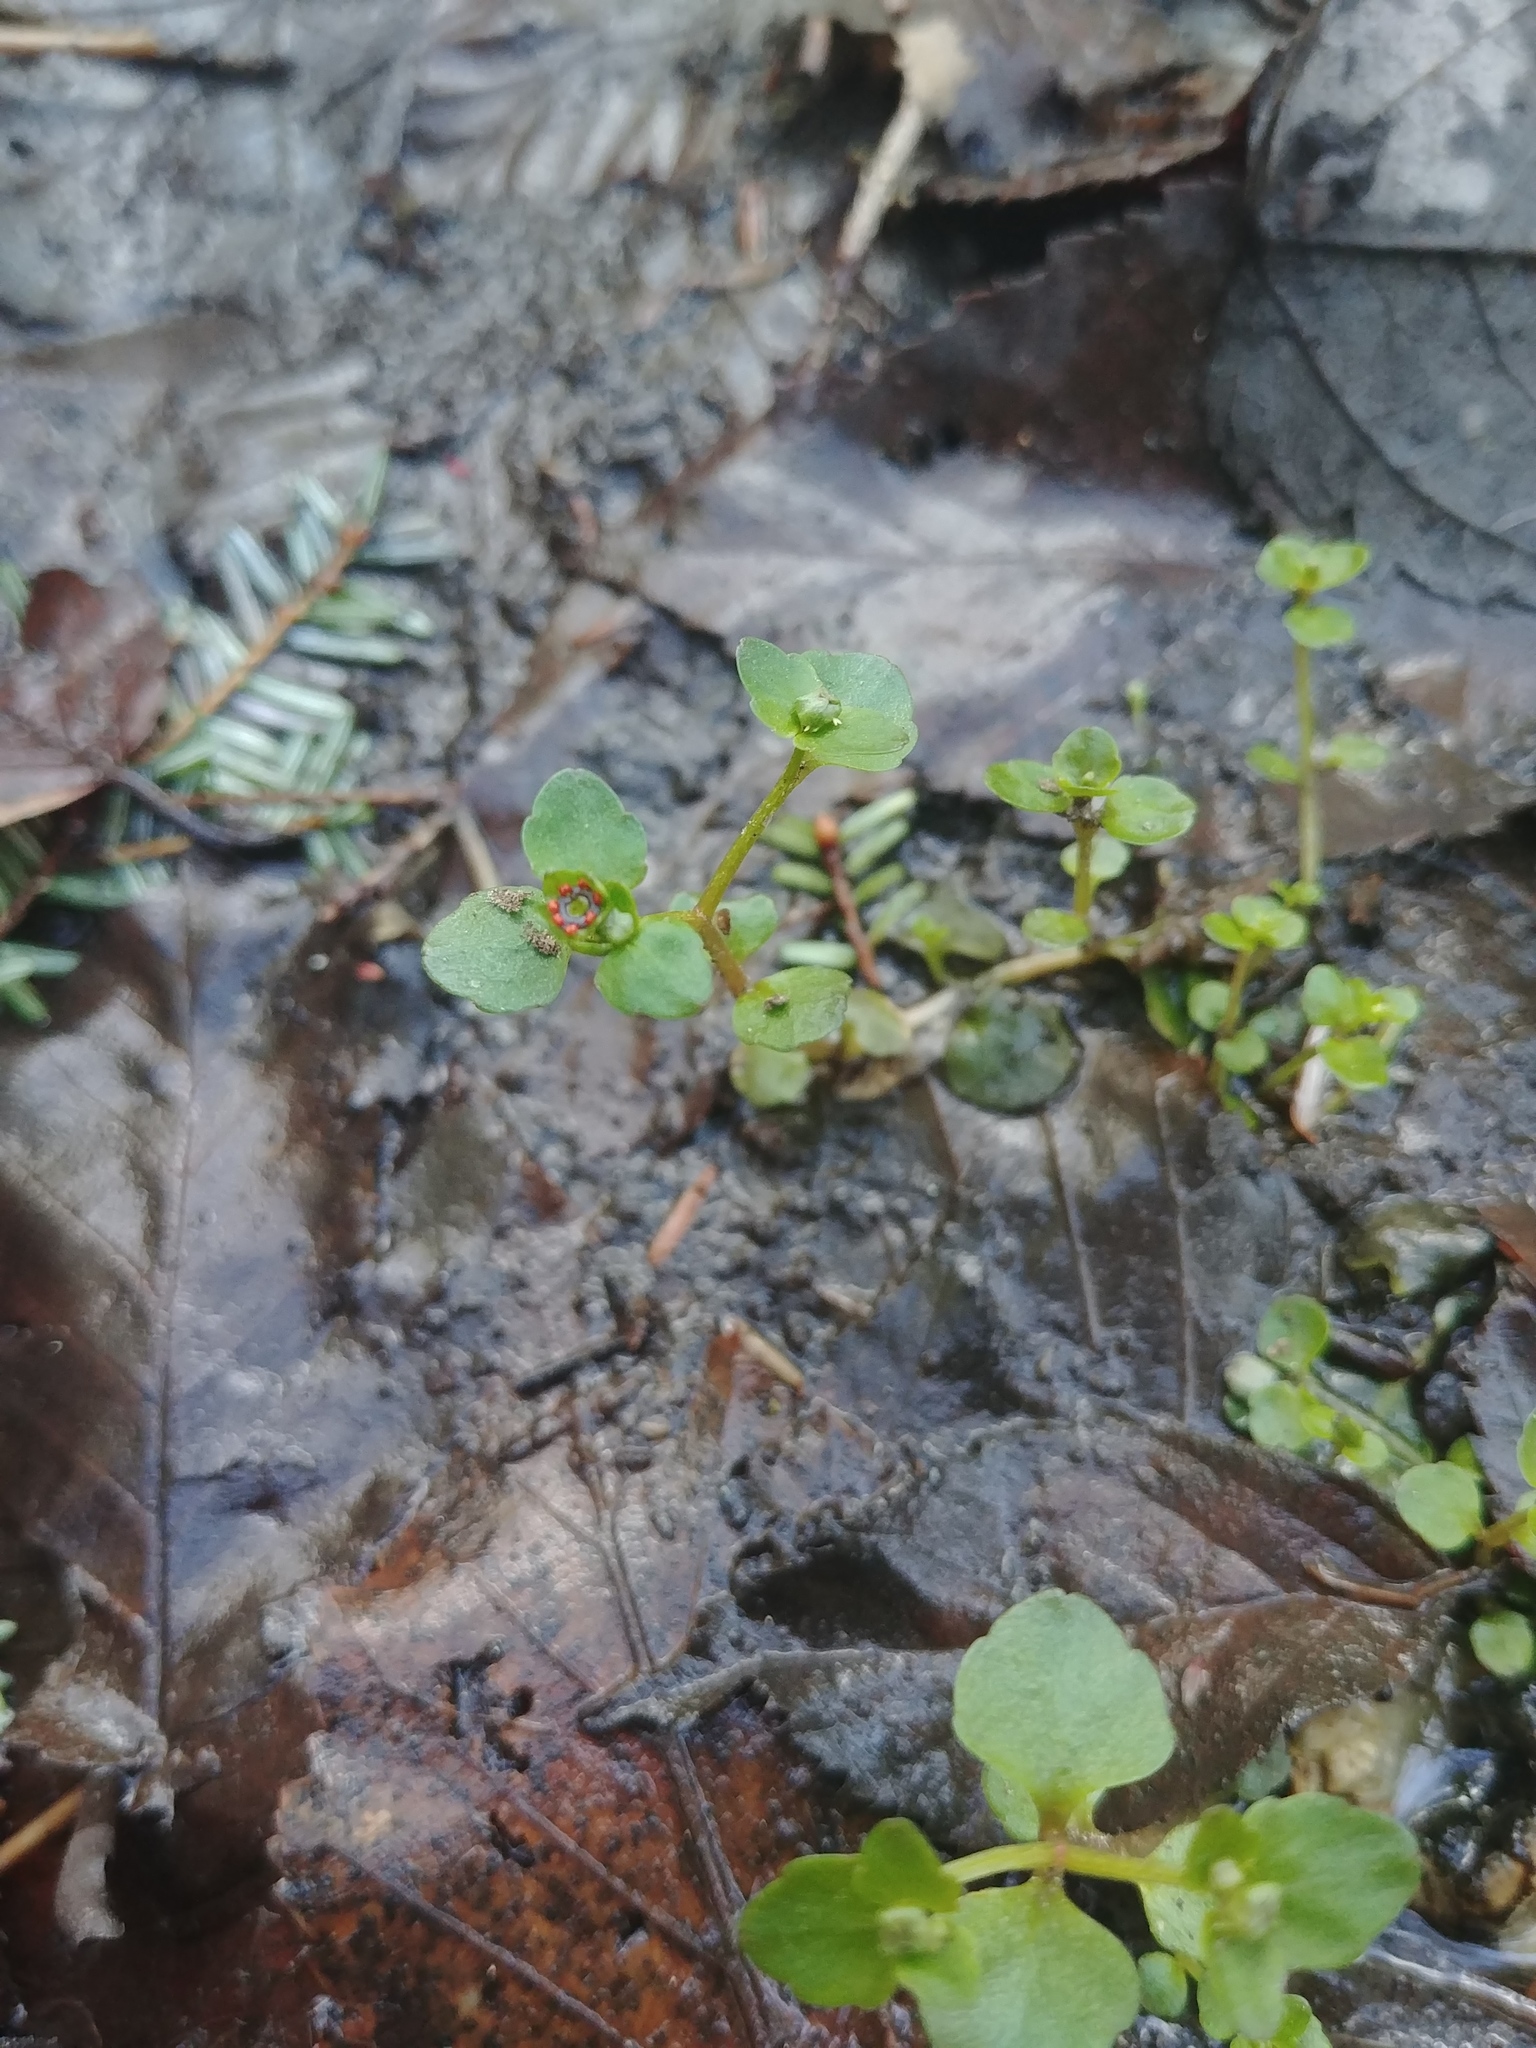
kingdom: Plantae
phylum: Tracheophyta
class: Magnoliopsida
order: Saxifragales
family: Saxifragaceae
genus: Chrysosplenium
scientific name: Chrysosplenium americanum
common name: American golden-saxifrage
